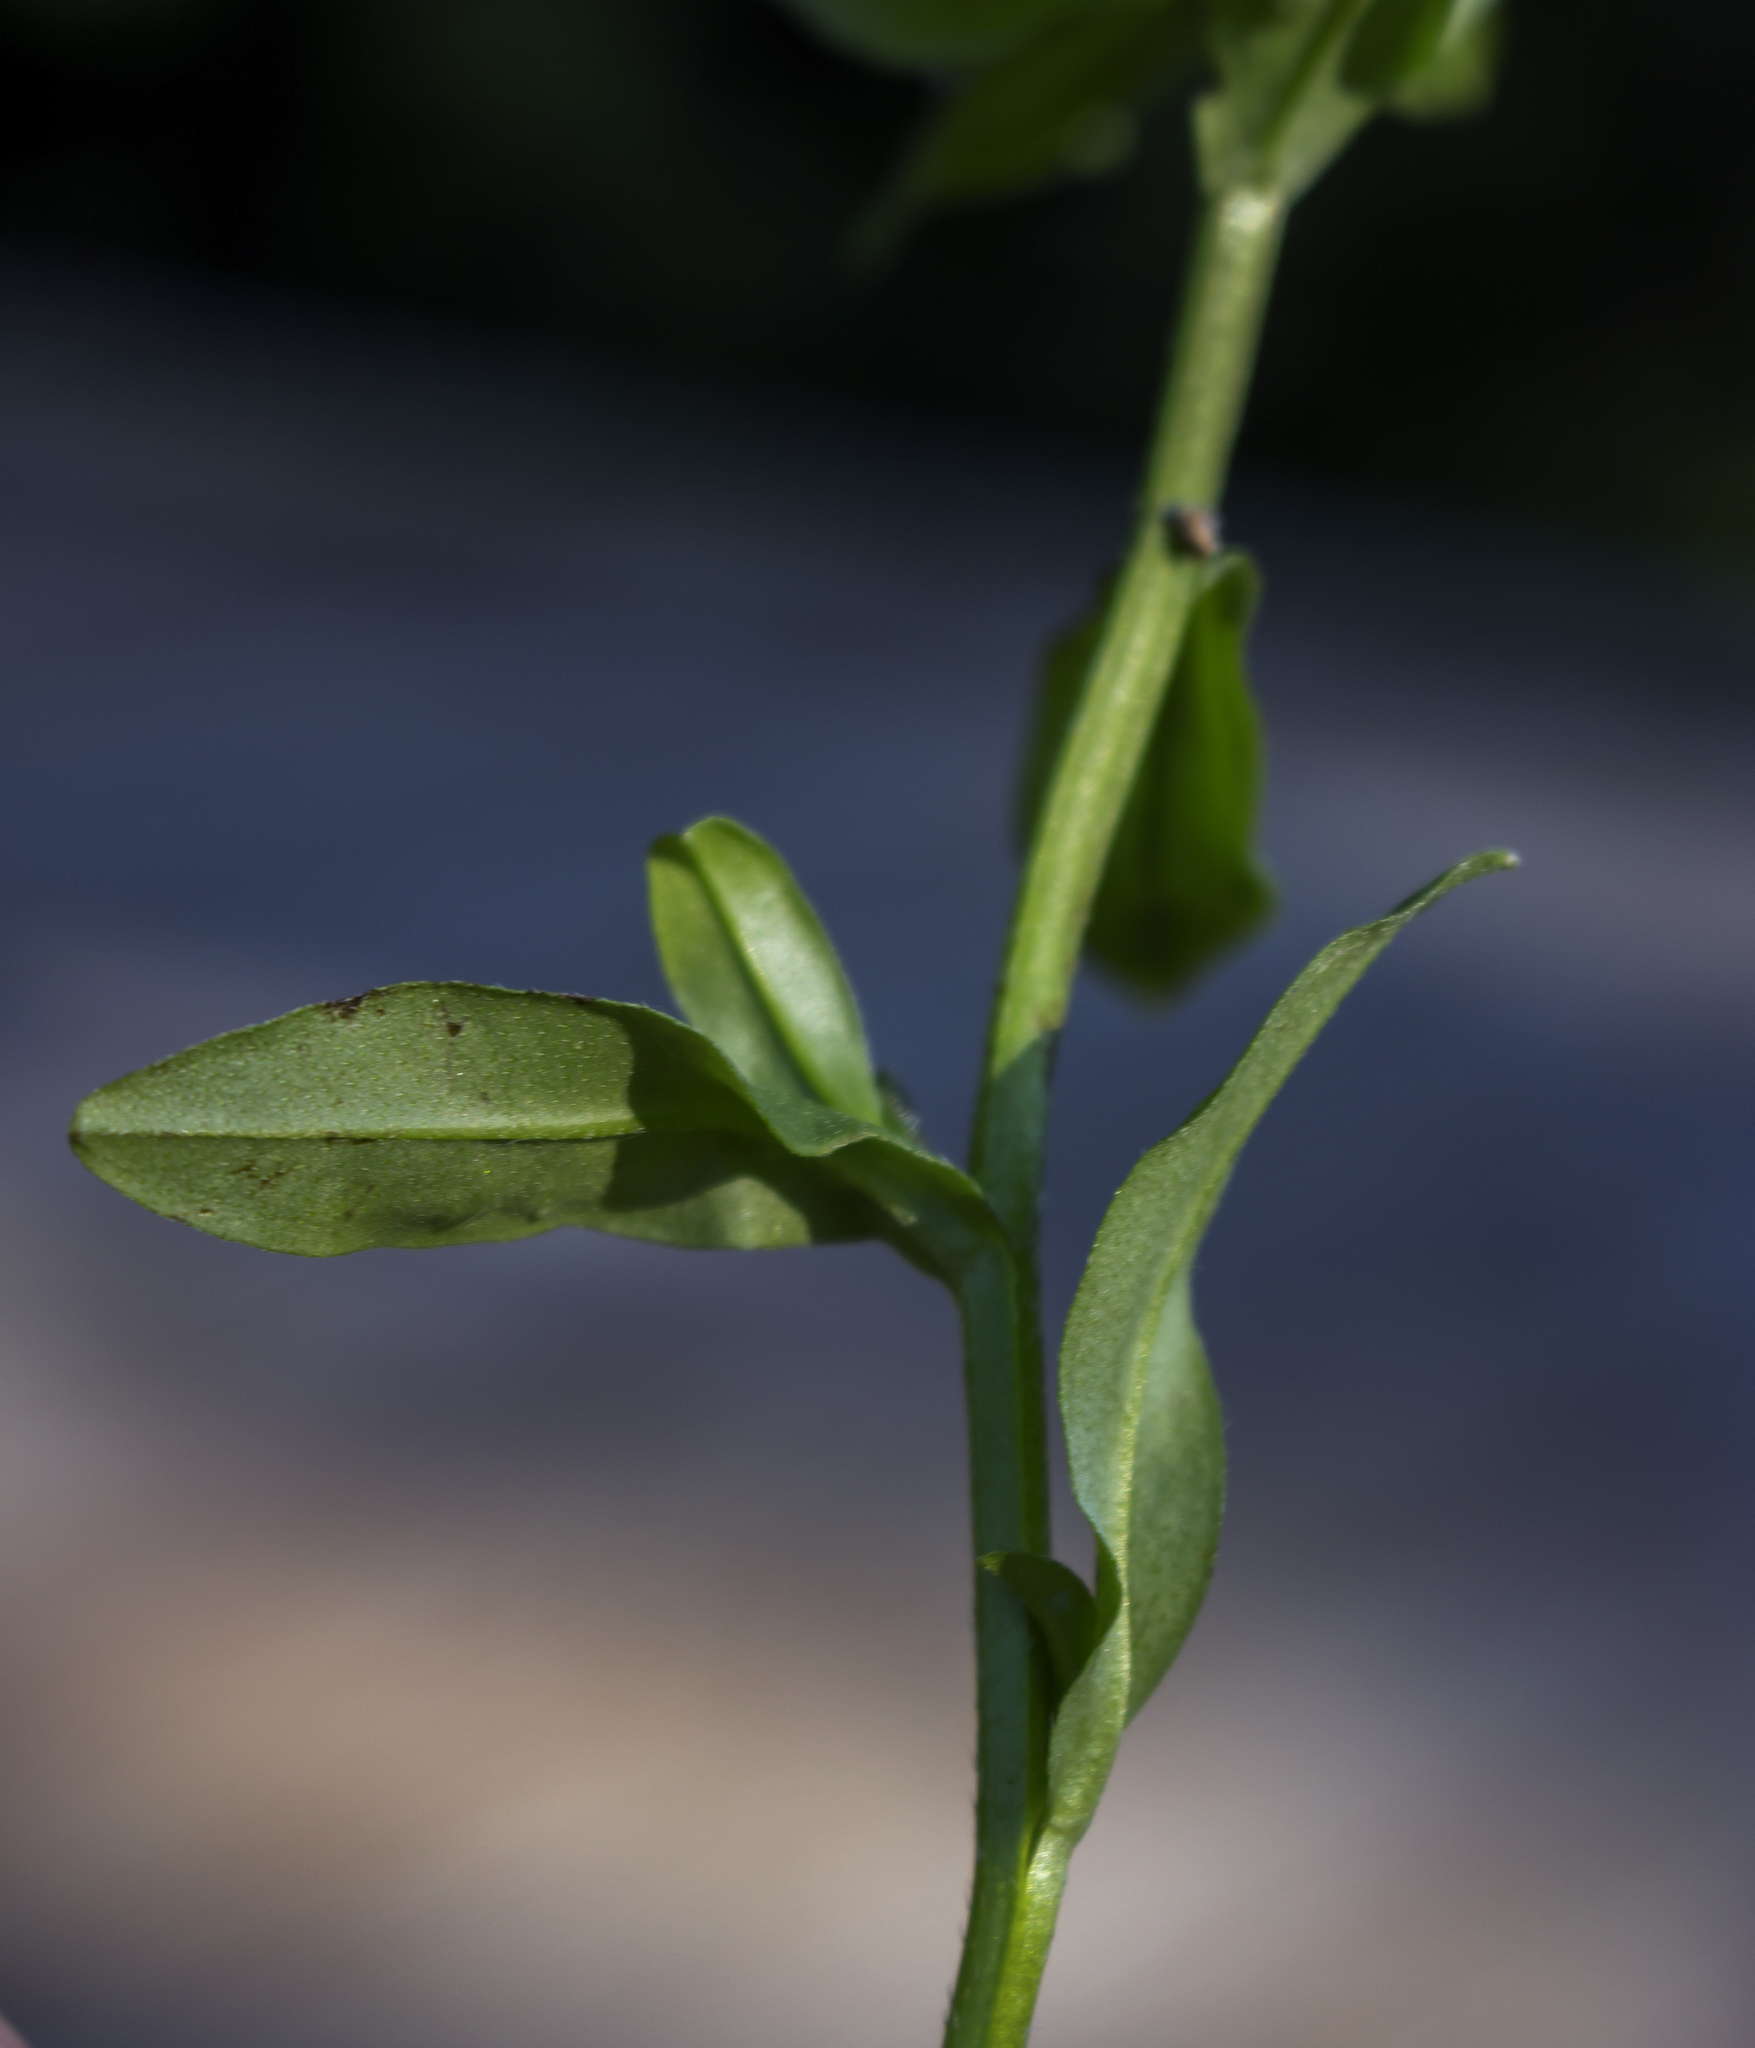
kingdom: Plantae
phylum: Tracheophyta
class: Magnoliopsida
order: Boraginales
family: Boraginaceae
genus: Myosotis
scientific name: Myosotis scorpioides
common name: Water forget-me-not
